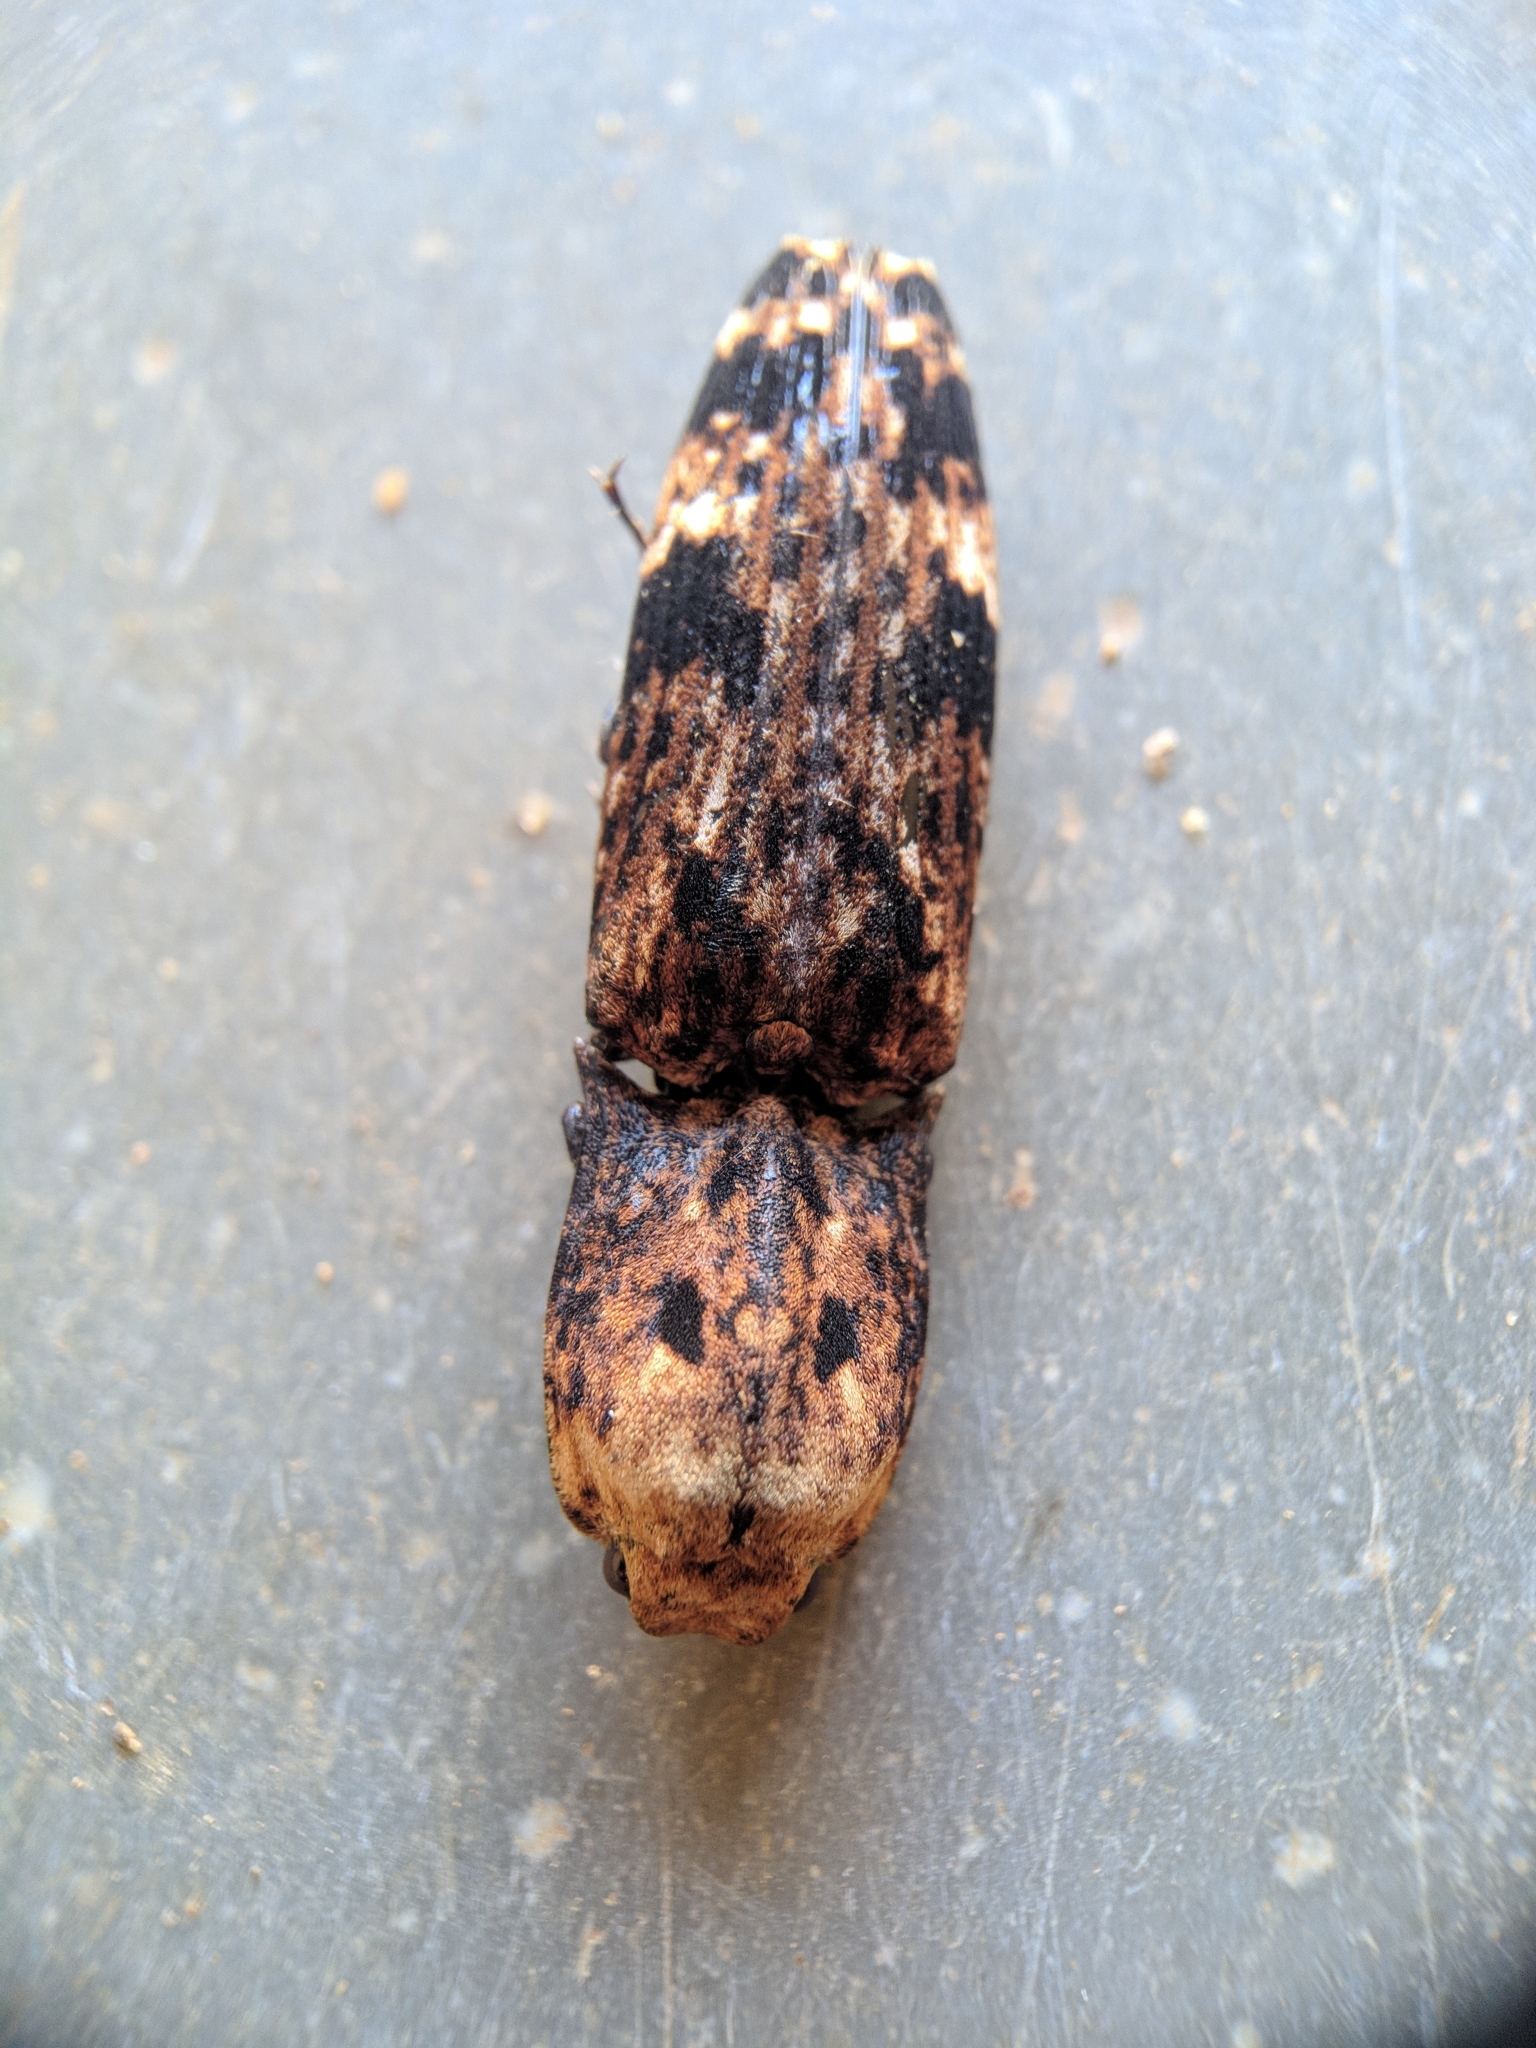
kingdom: Animalia
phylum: Arthropoda
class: Insecta
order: Coleoptera
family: Elateridae
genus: Cryptalaus
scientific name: Cryptalaus alveolatus
